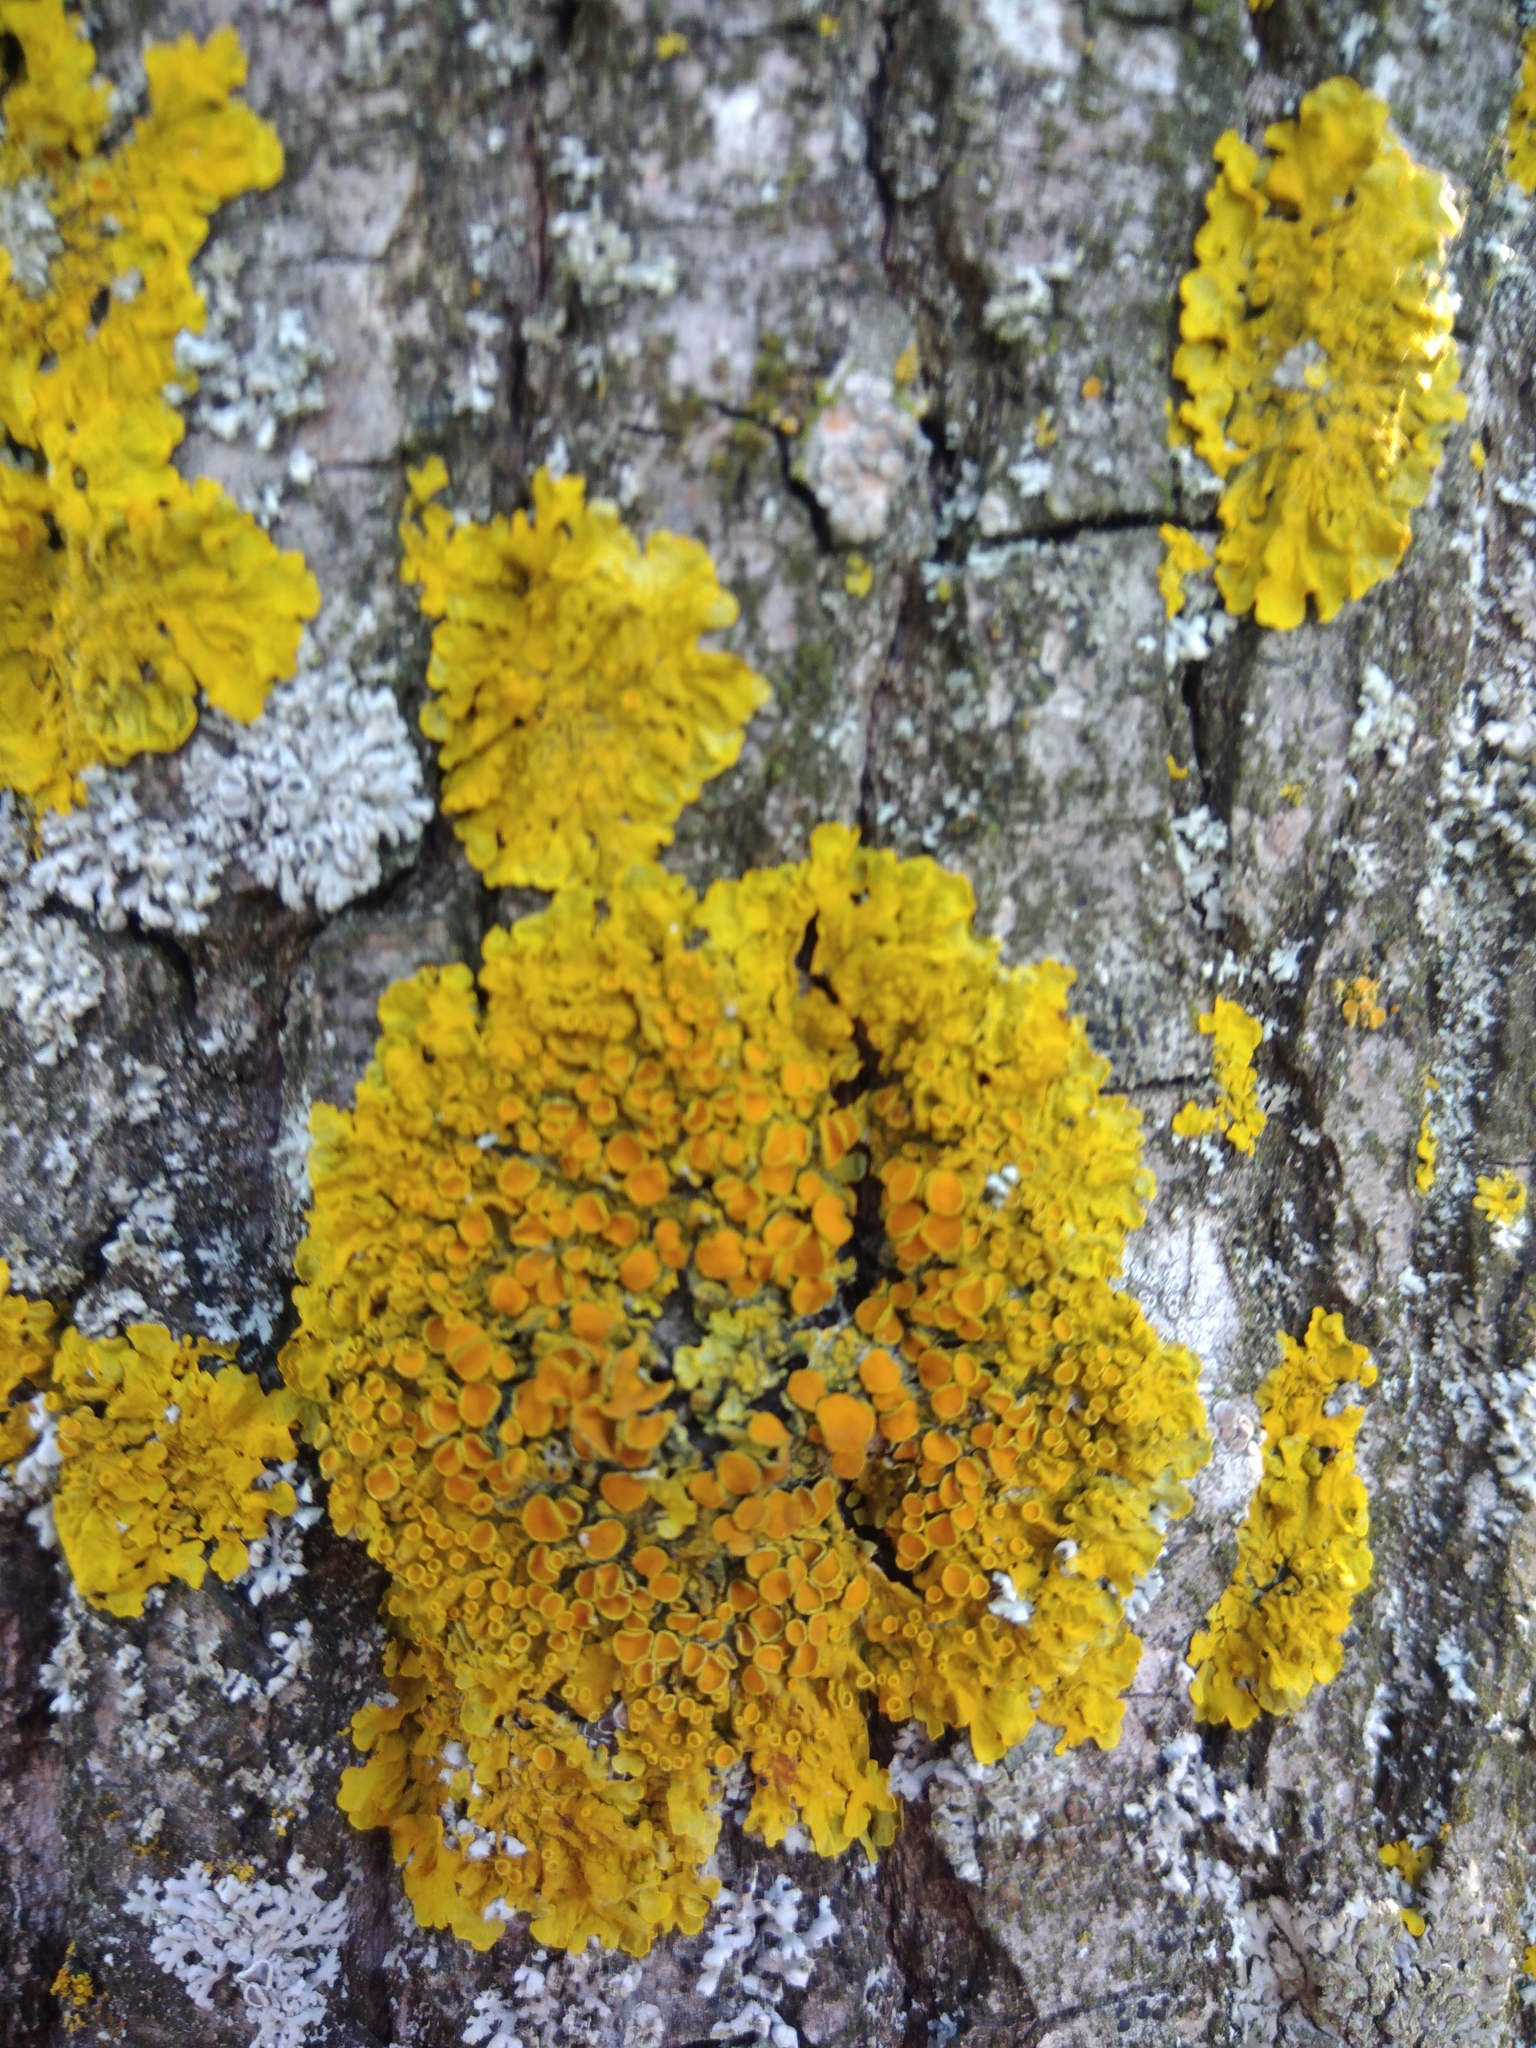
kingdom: Fungi
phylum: Ascomycota
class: Lecanoromycetes
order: Teloschistales
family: Teloschistaceae
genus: Xanthoria
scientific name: Xanthoria parietina
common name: Common orange lichen
